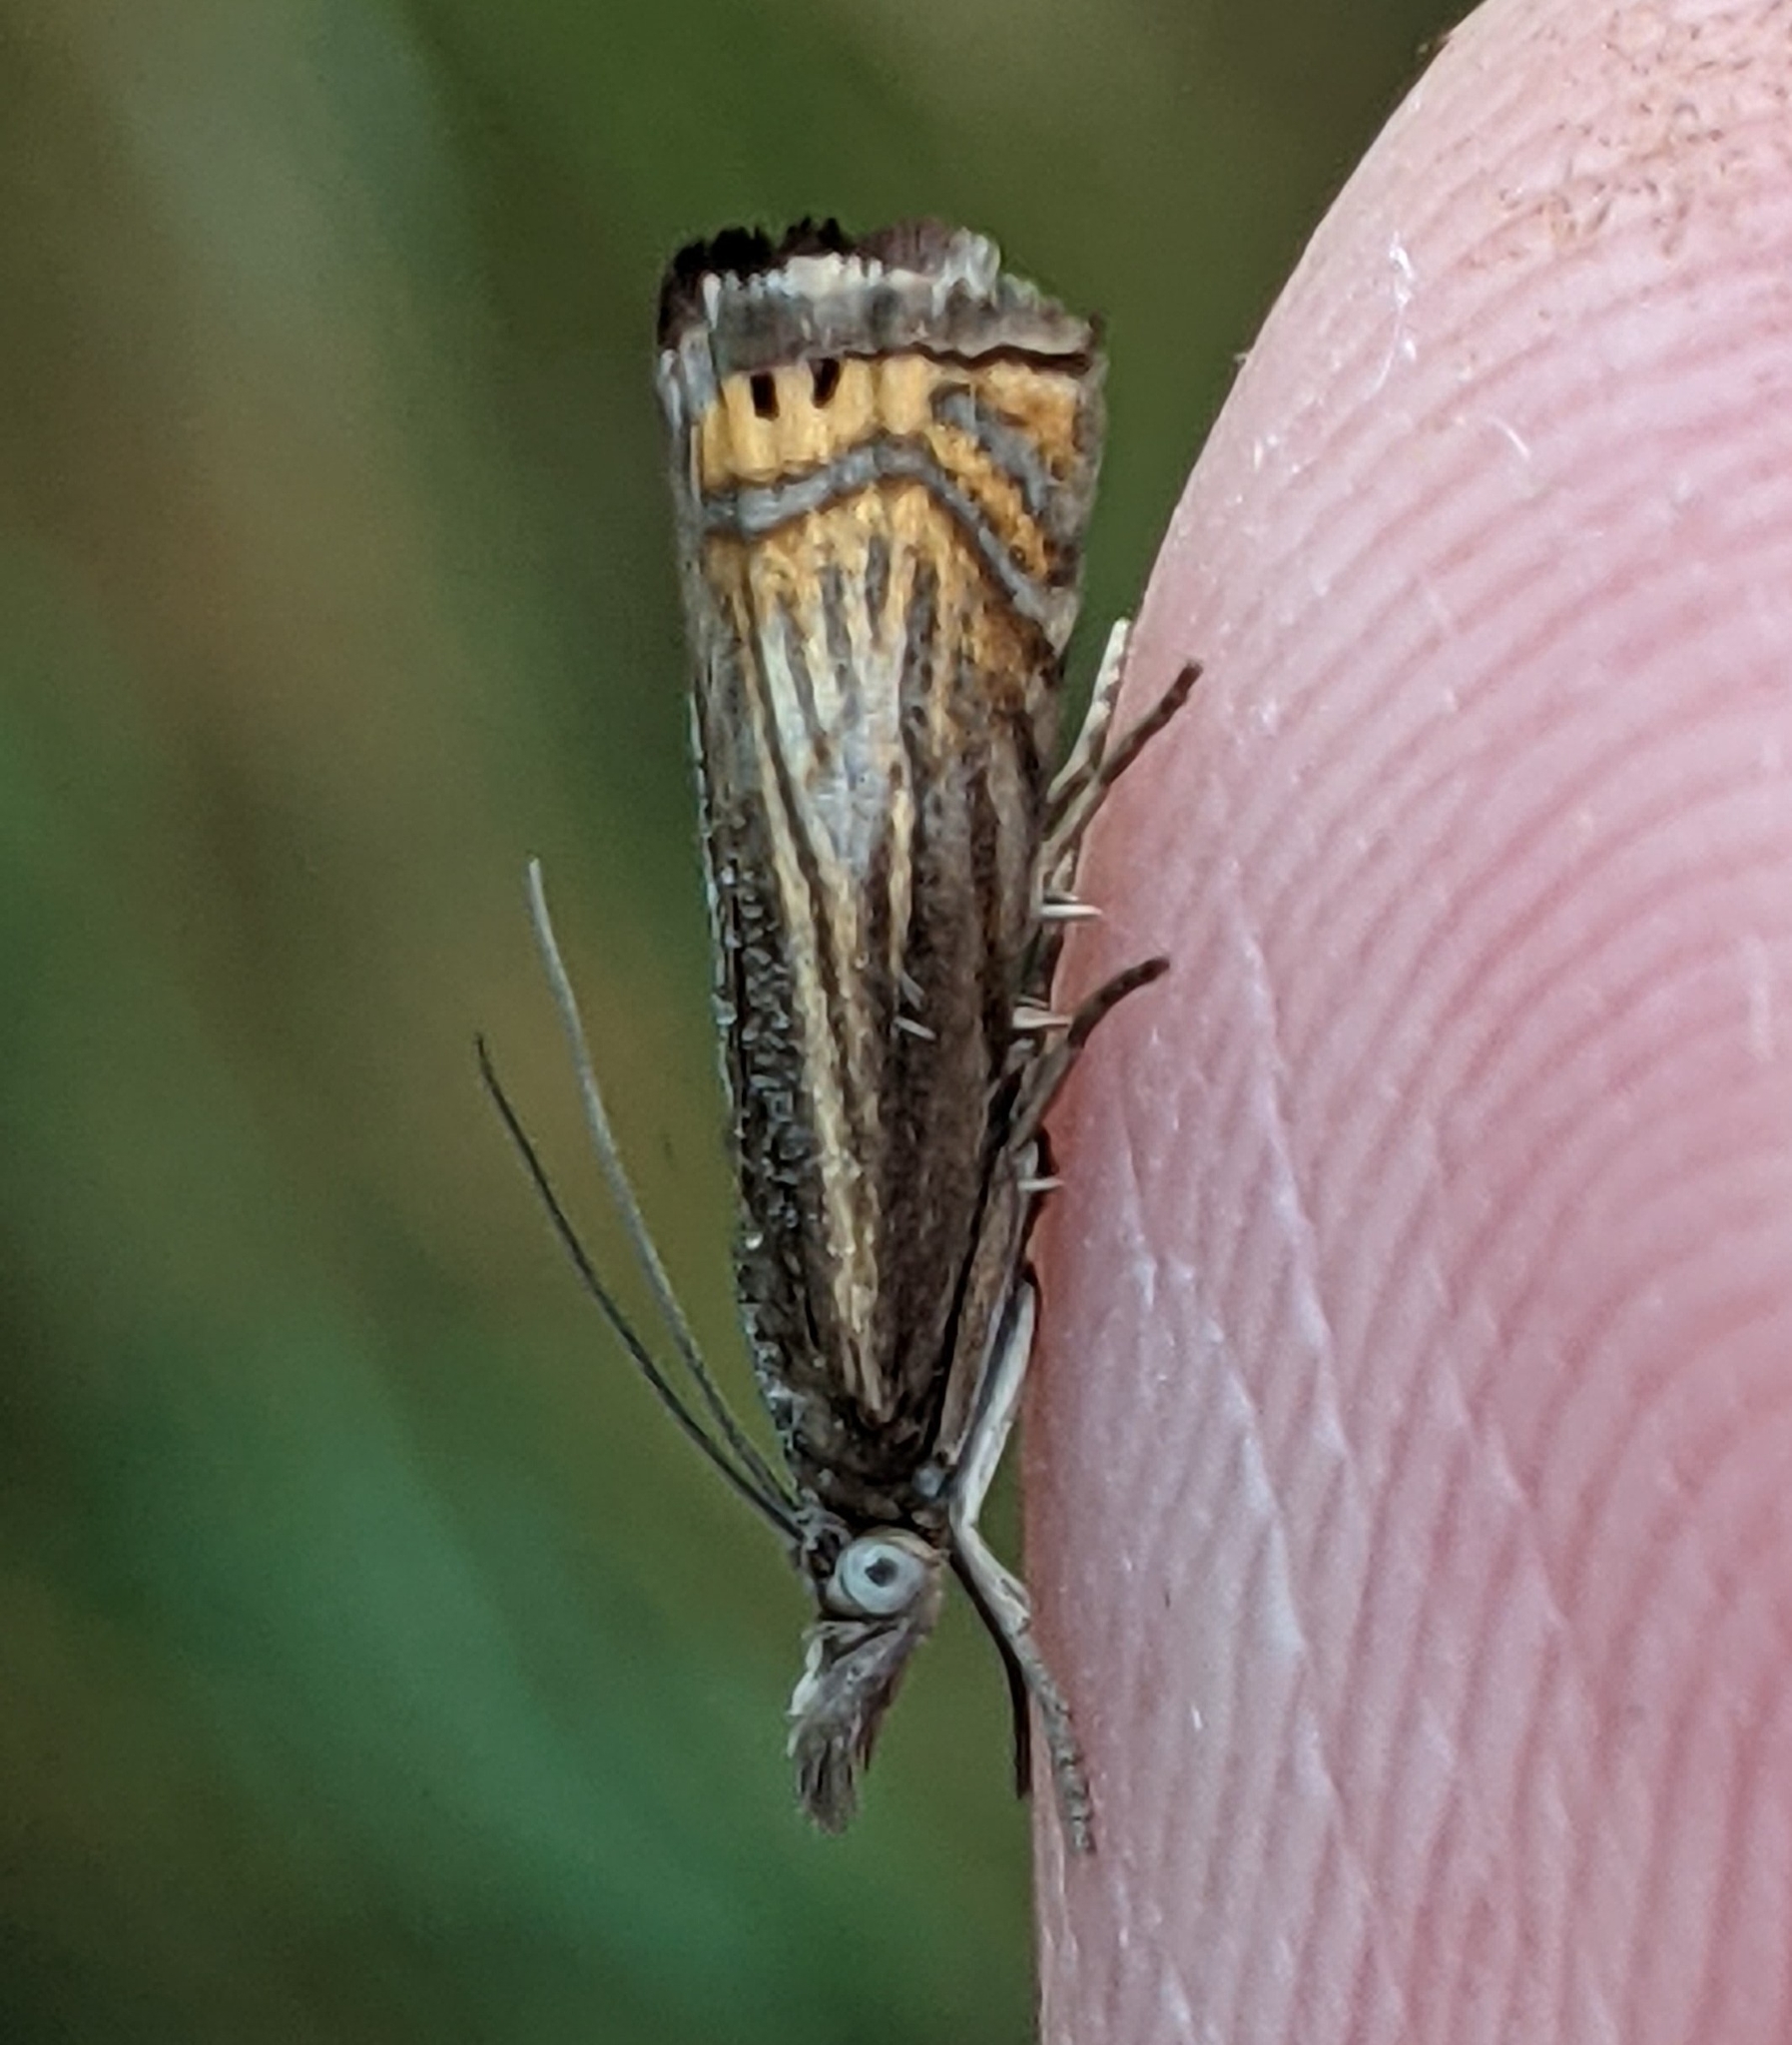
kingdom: Animalia
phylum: Arthropoda
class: Insecta
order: Lepidoptera
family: Crambidae
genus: Chrysoteuchia
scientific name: Chrysoteuchia topiarius
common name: Topiary grass-veneer
